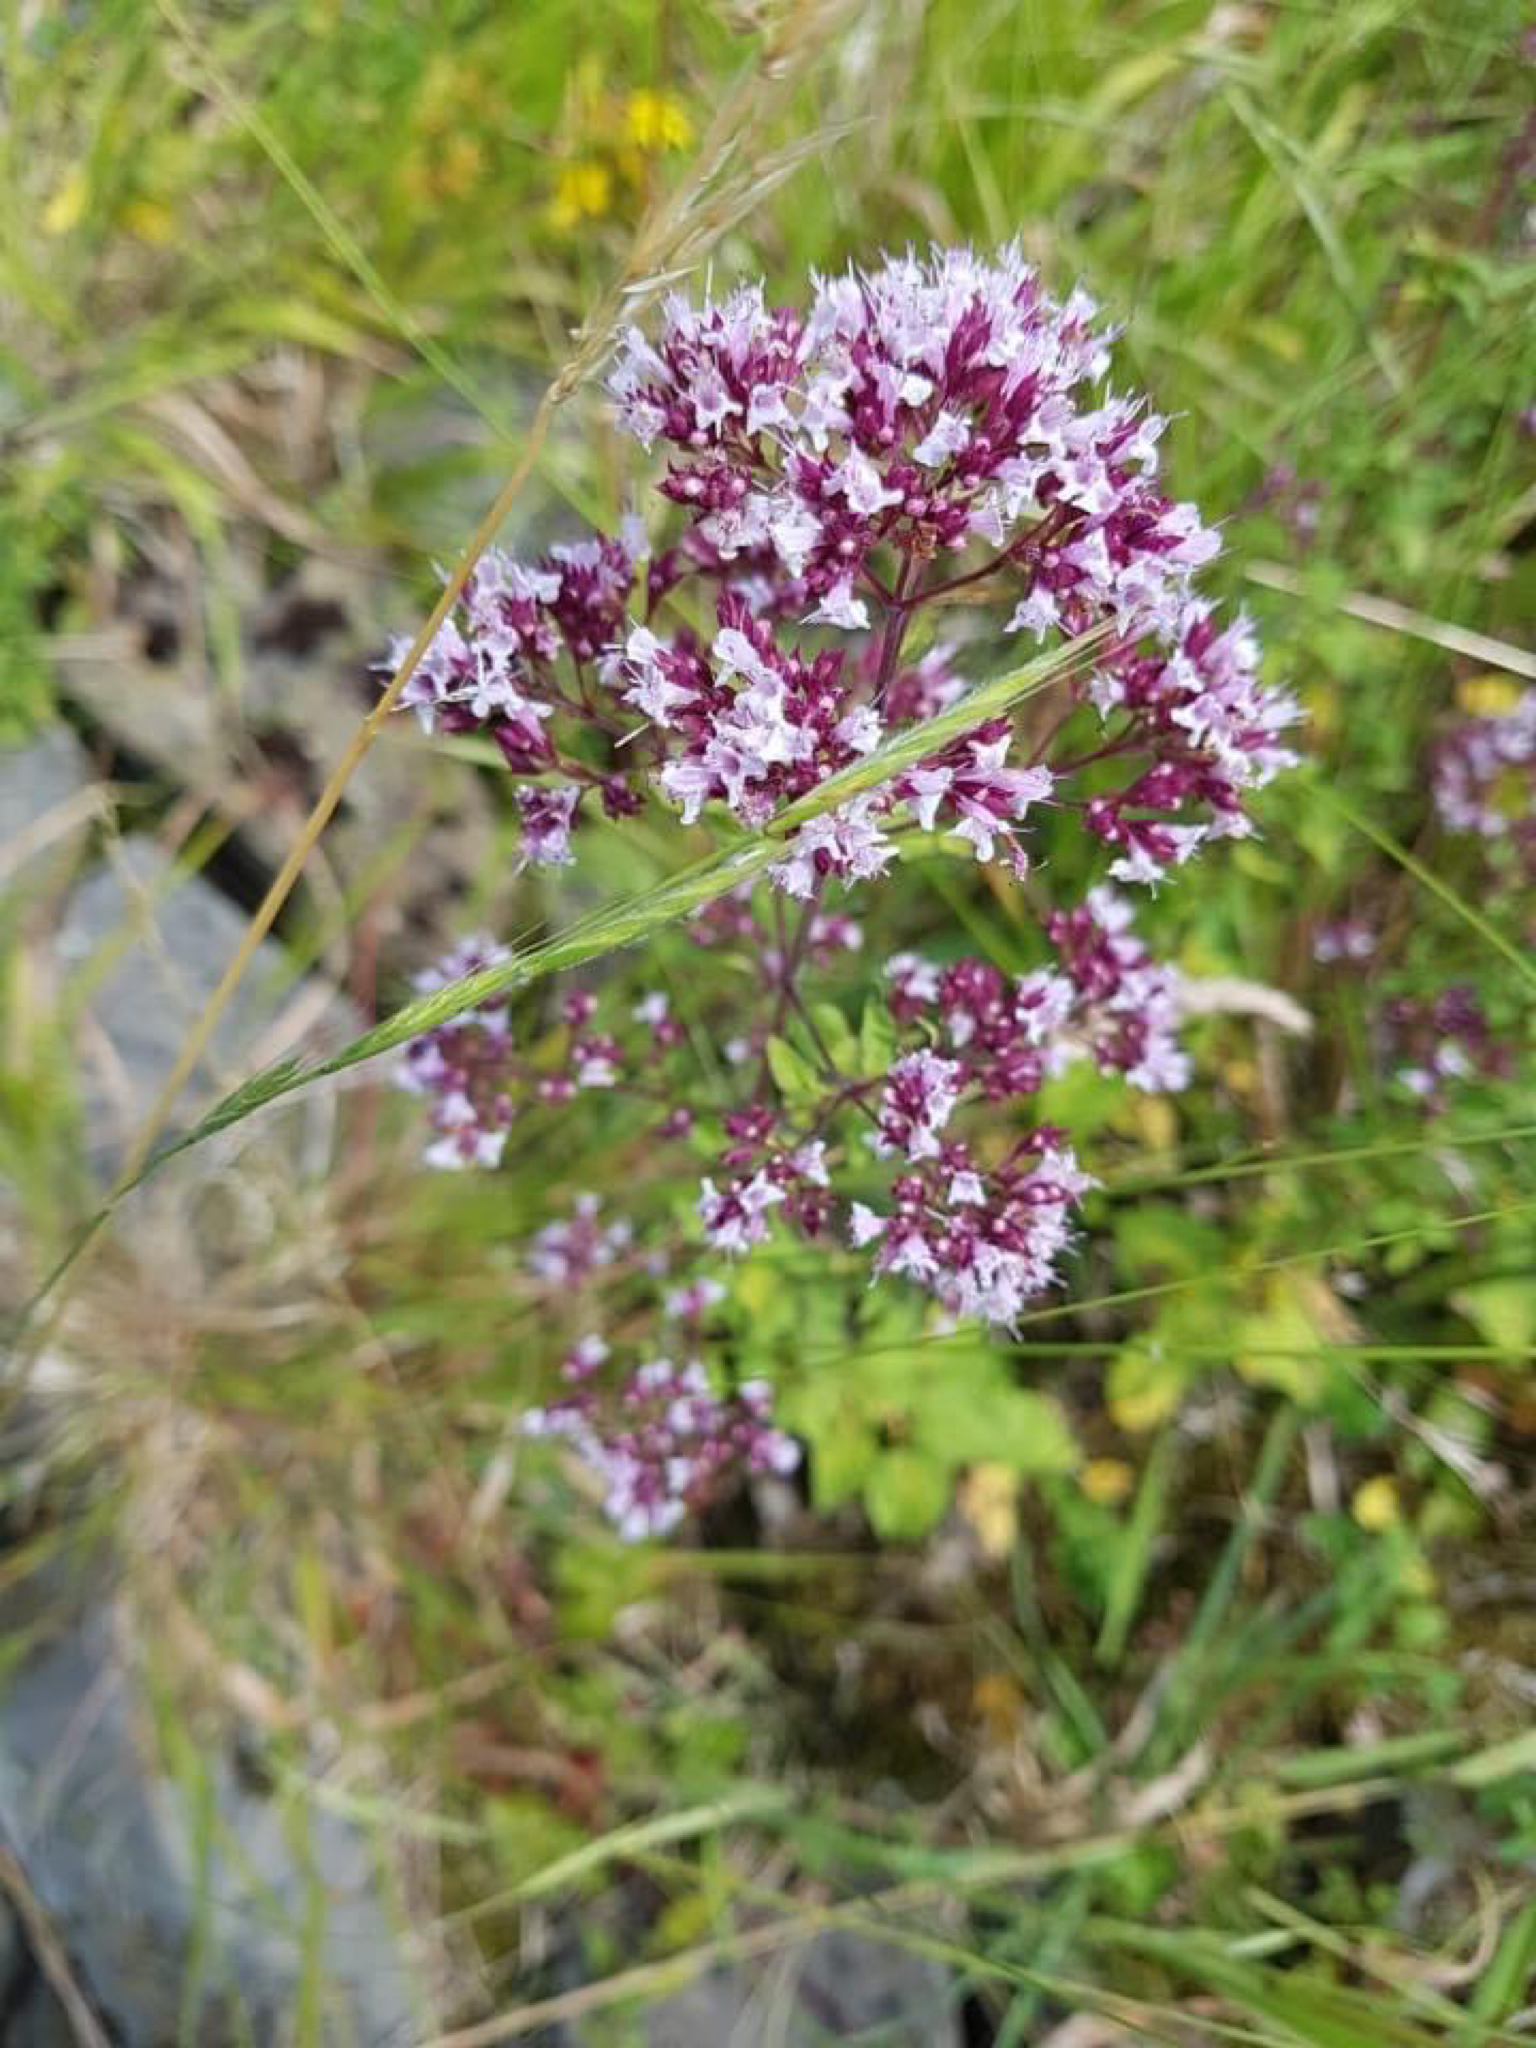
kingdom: Plantae
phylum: Tracheophyta
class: Magnoliopsida
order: Lamiales
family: Lamiaceae
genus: Origanum
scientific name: Origanum vulgare
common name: Wild marjoram
